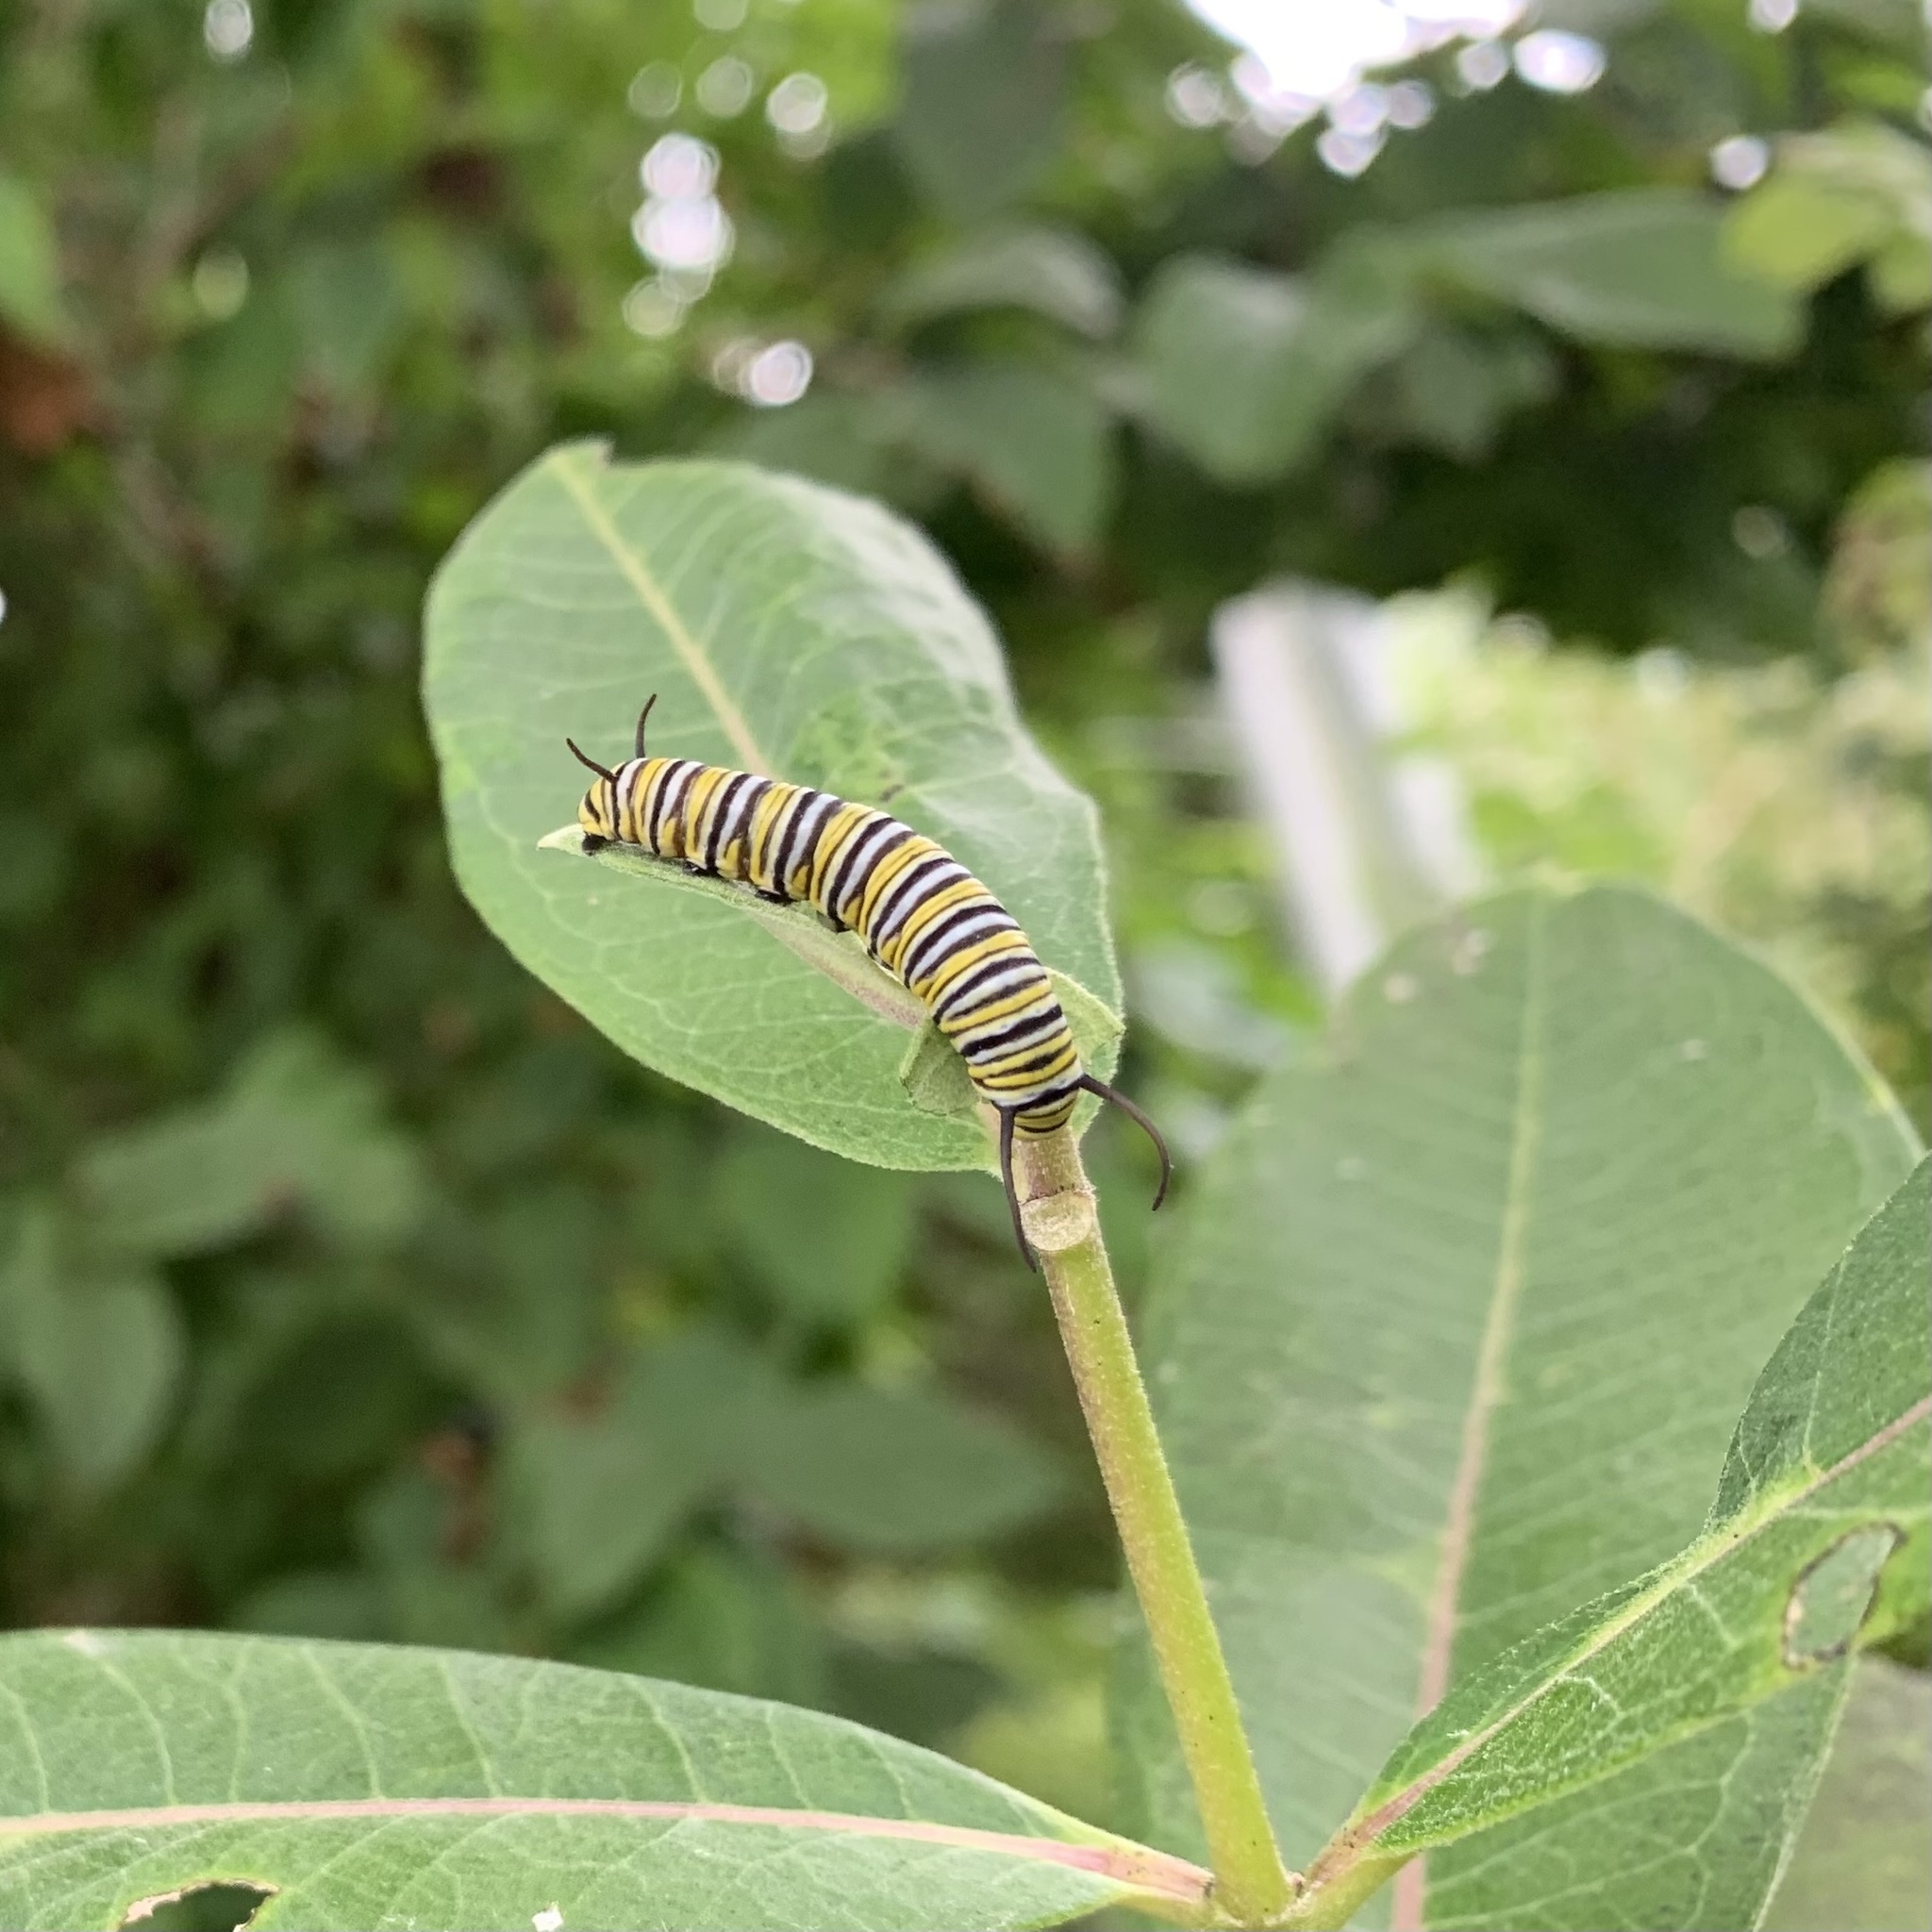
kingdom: Animalia
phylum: Arthropoda
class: Insecta
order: Lepidoptera
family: Nymphalidae
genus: Danaus
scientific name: Danaus plexippus
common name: Monarch
